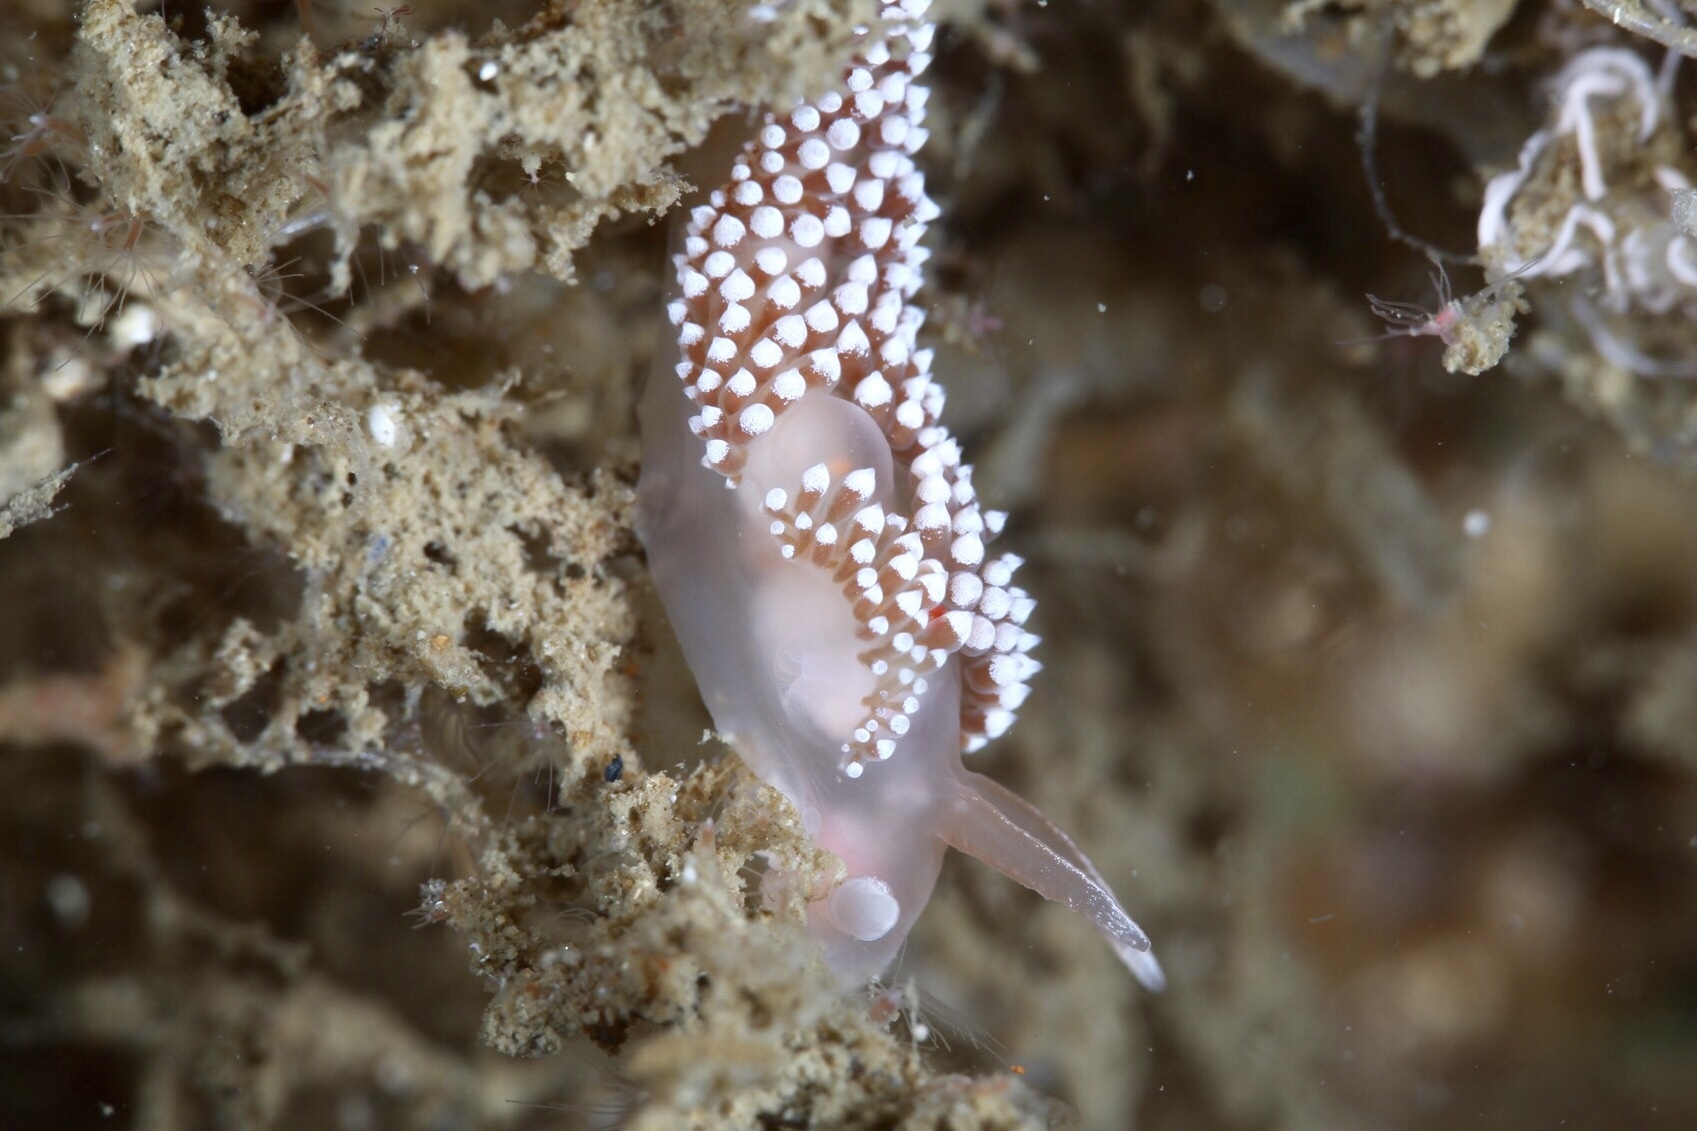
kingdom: Animalia
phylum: Mollusca
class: Gastropoda
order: Nudibranchia
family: Coryphellidae
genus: Coryphella
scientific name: Coryphella verrucosa
